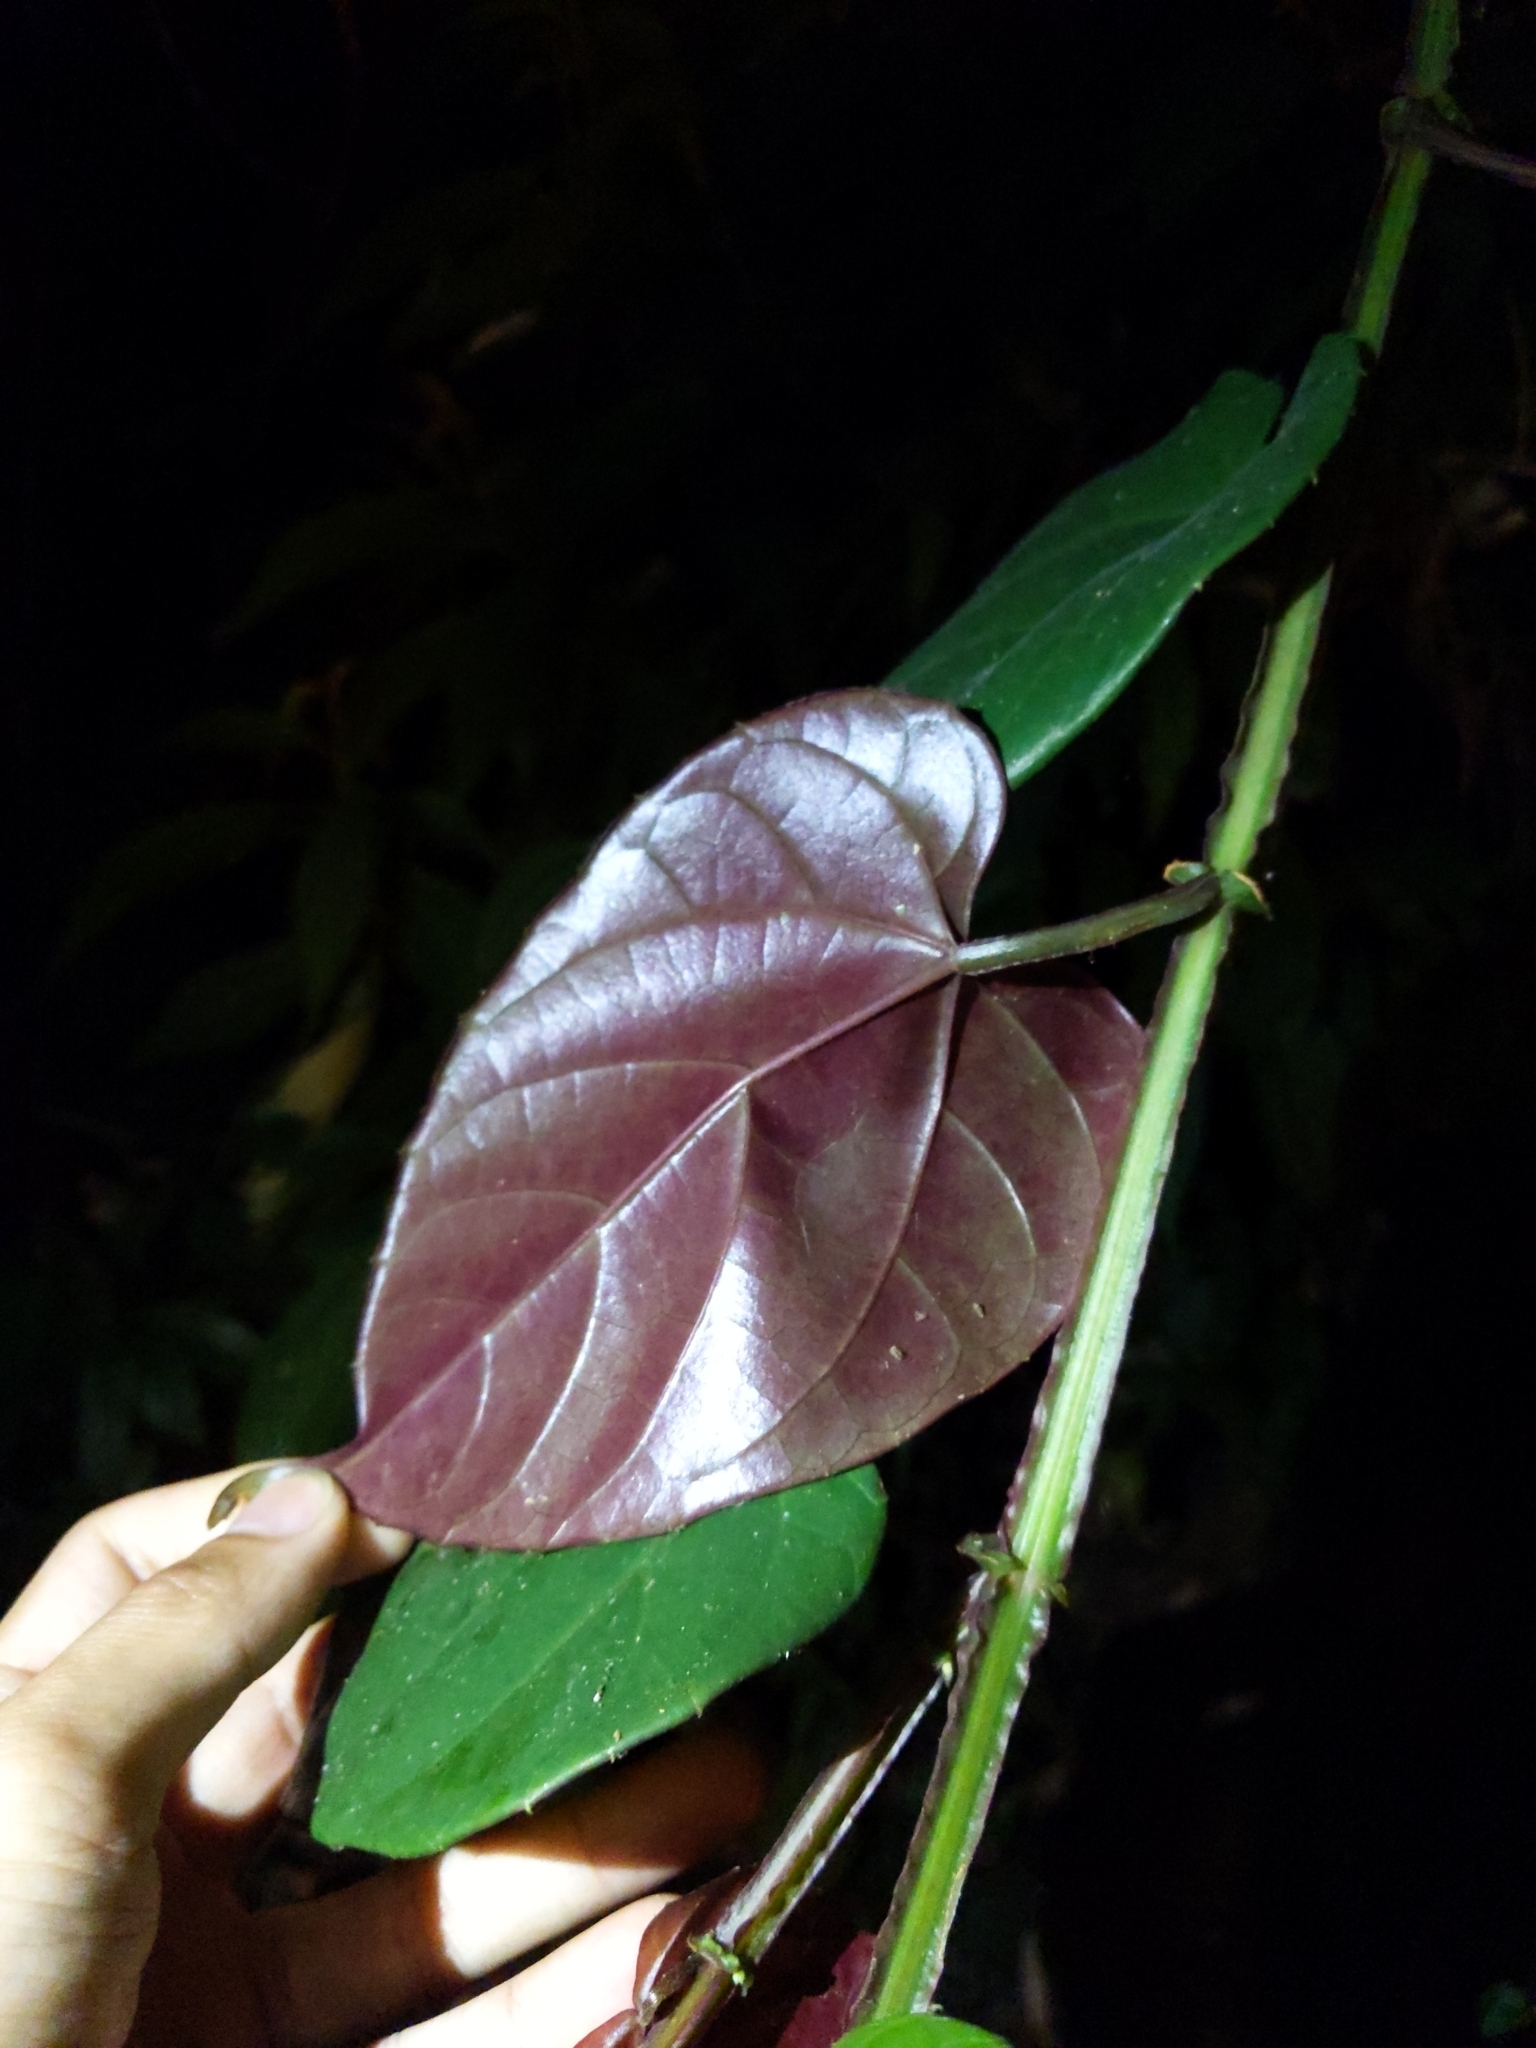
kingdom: Plantae
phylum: Tracheophyta
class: Magnoliopsida
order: Vitales
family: Vitaceae
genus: Cissus
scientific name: Cissus pteroclada
